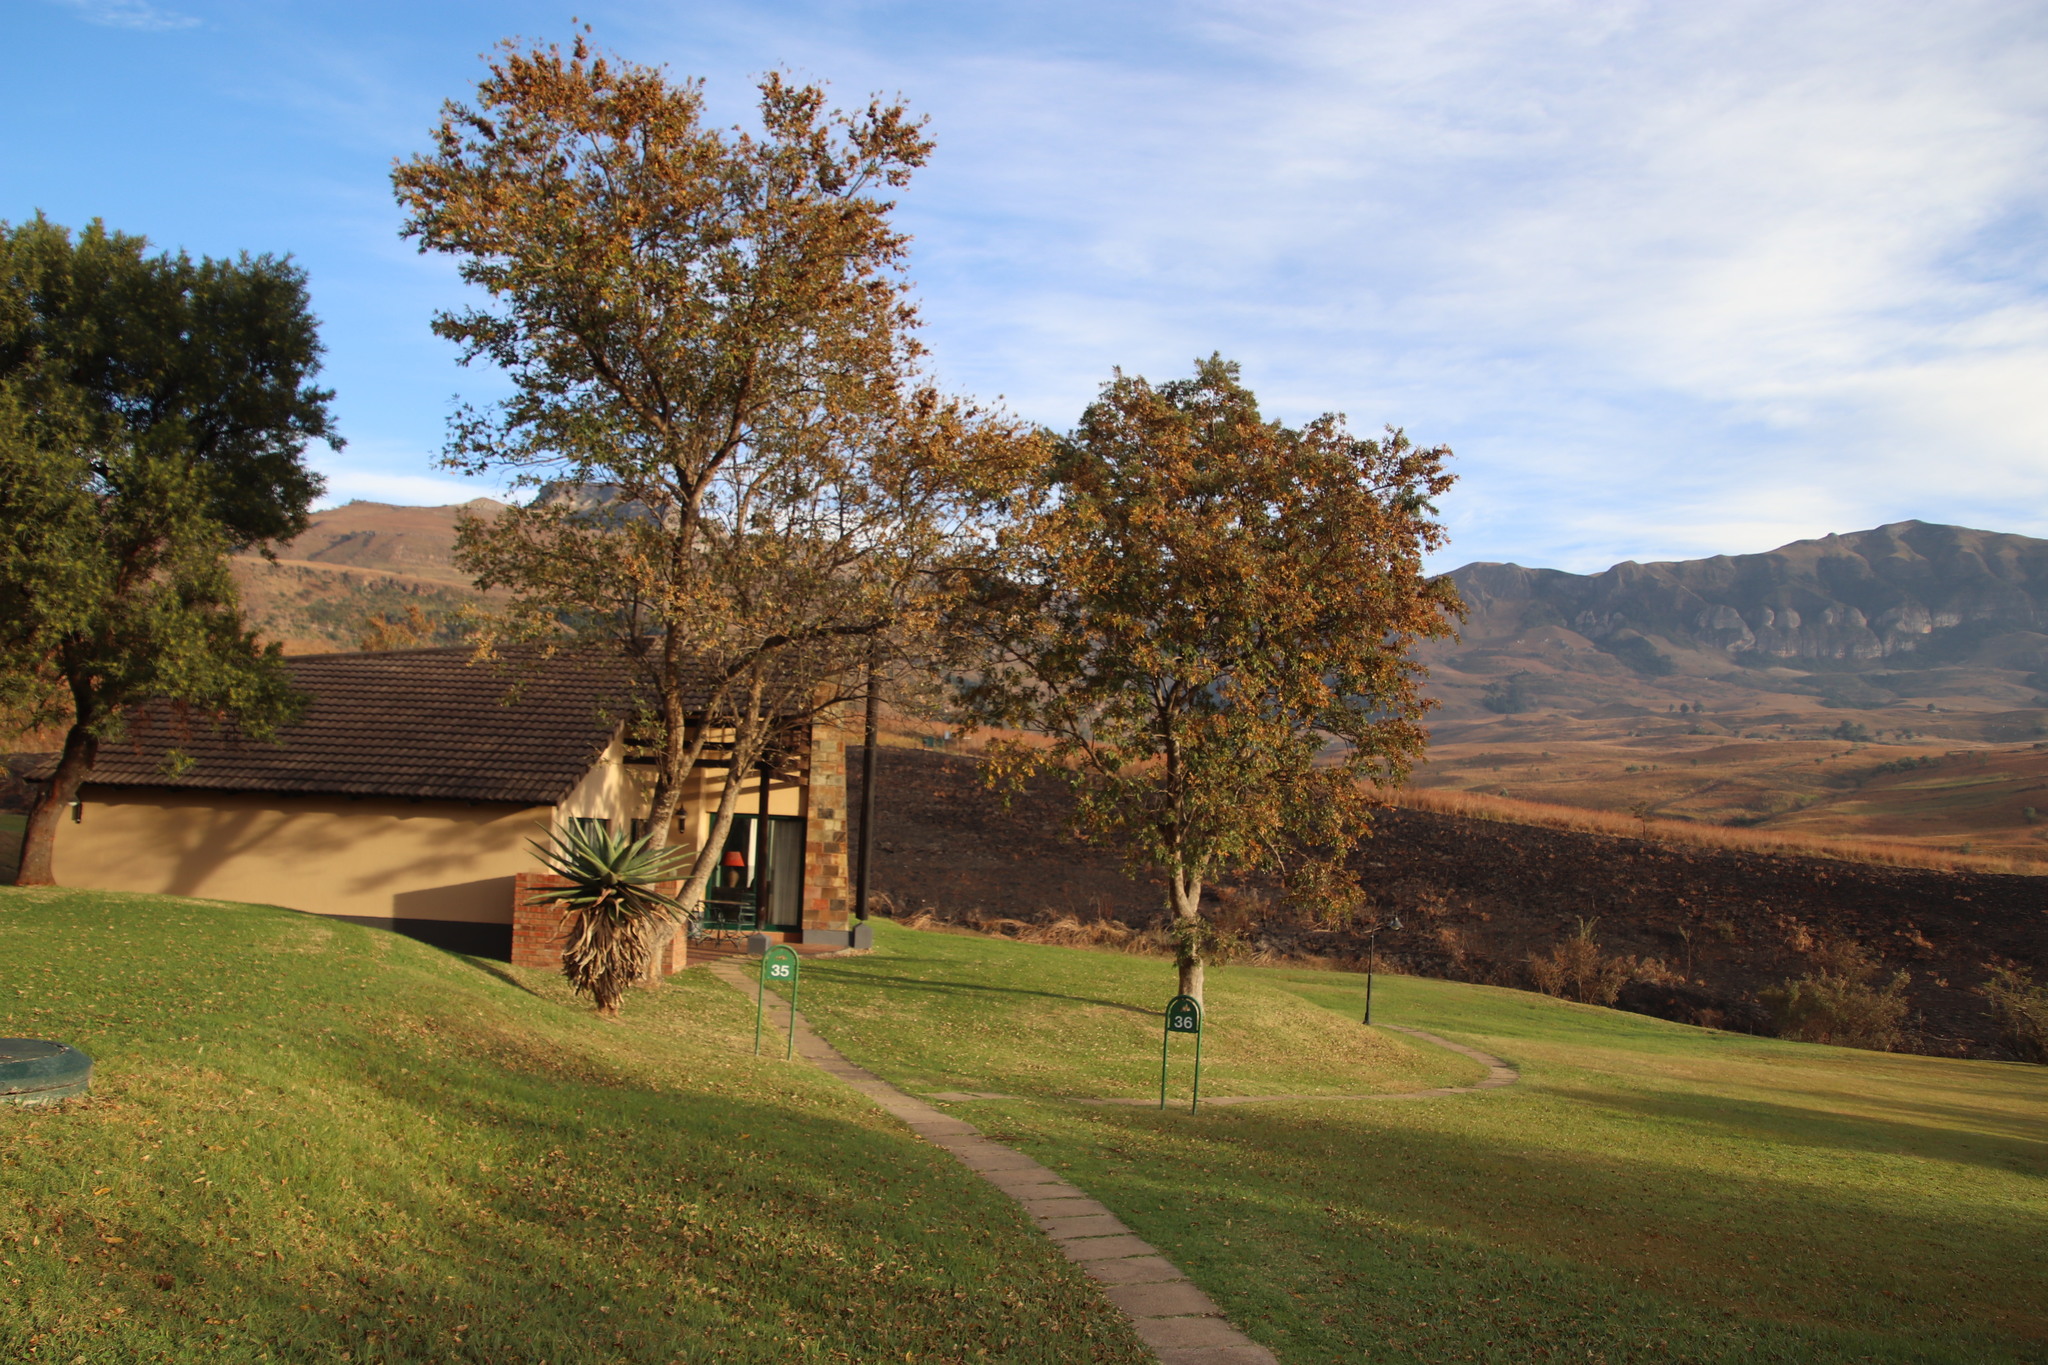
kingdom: Plantae
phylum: Tracheophyta
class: Magnoliopsida
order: Myrtales
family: Combretaceae
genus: Combretum
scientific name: Combretum erythrophyllum
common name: Bush-willow
